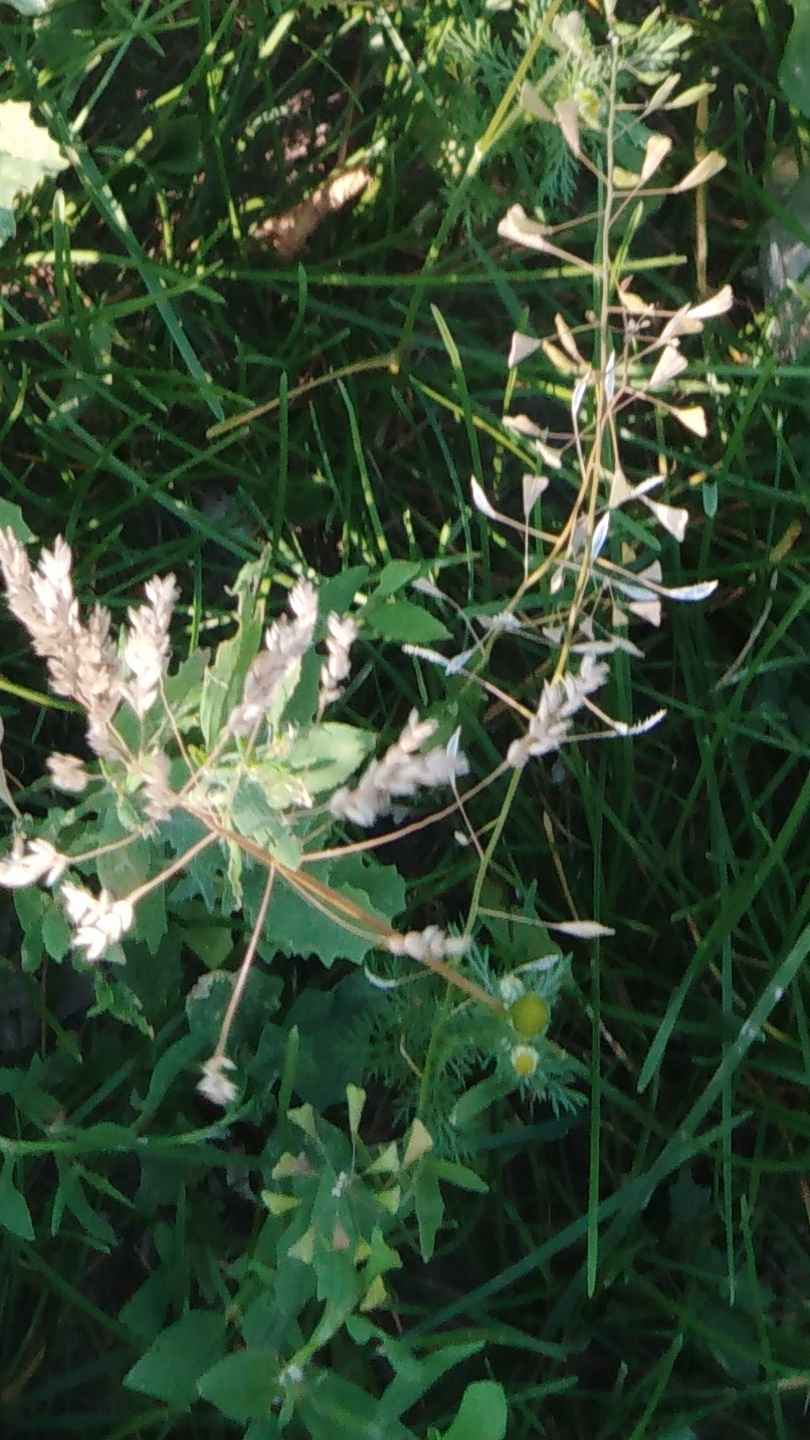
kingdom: Plantae
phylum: Tracheophyta
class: Magnoliopsida
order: Brassicales
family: Brassicaceae
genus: Capsella
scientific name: Capsella bursa-pastoris
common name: Shepherd's purse
